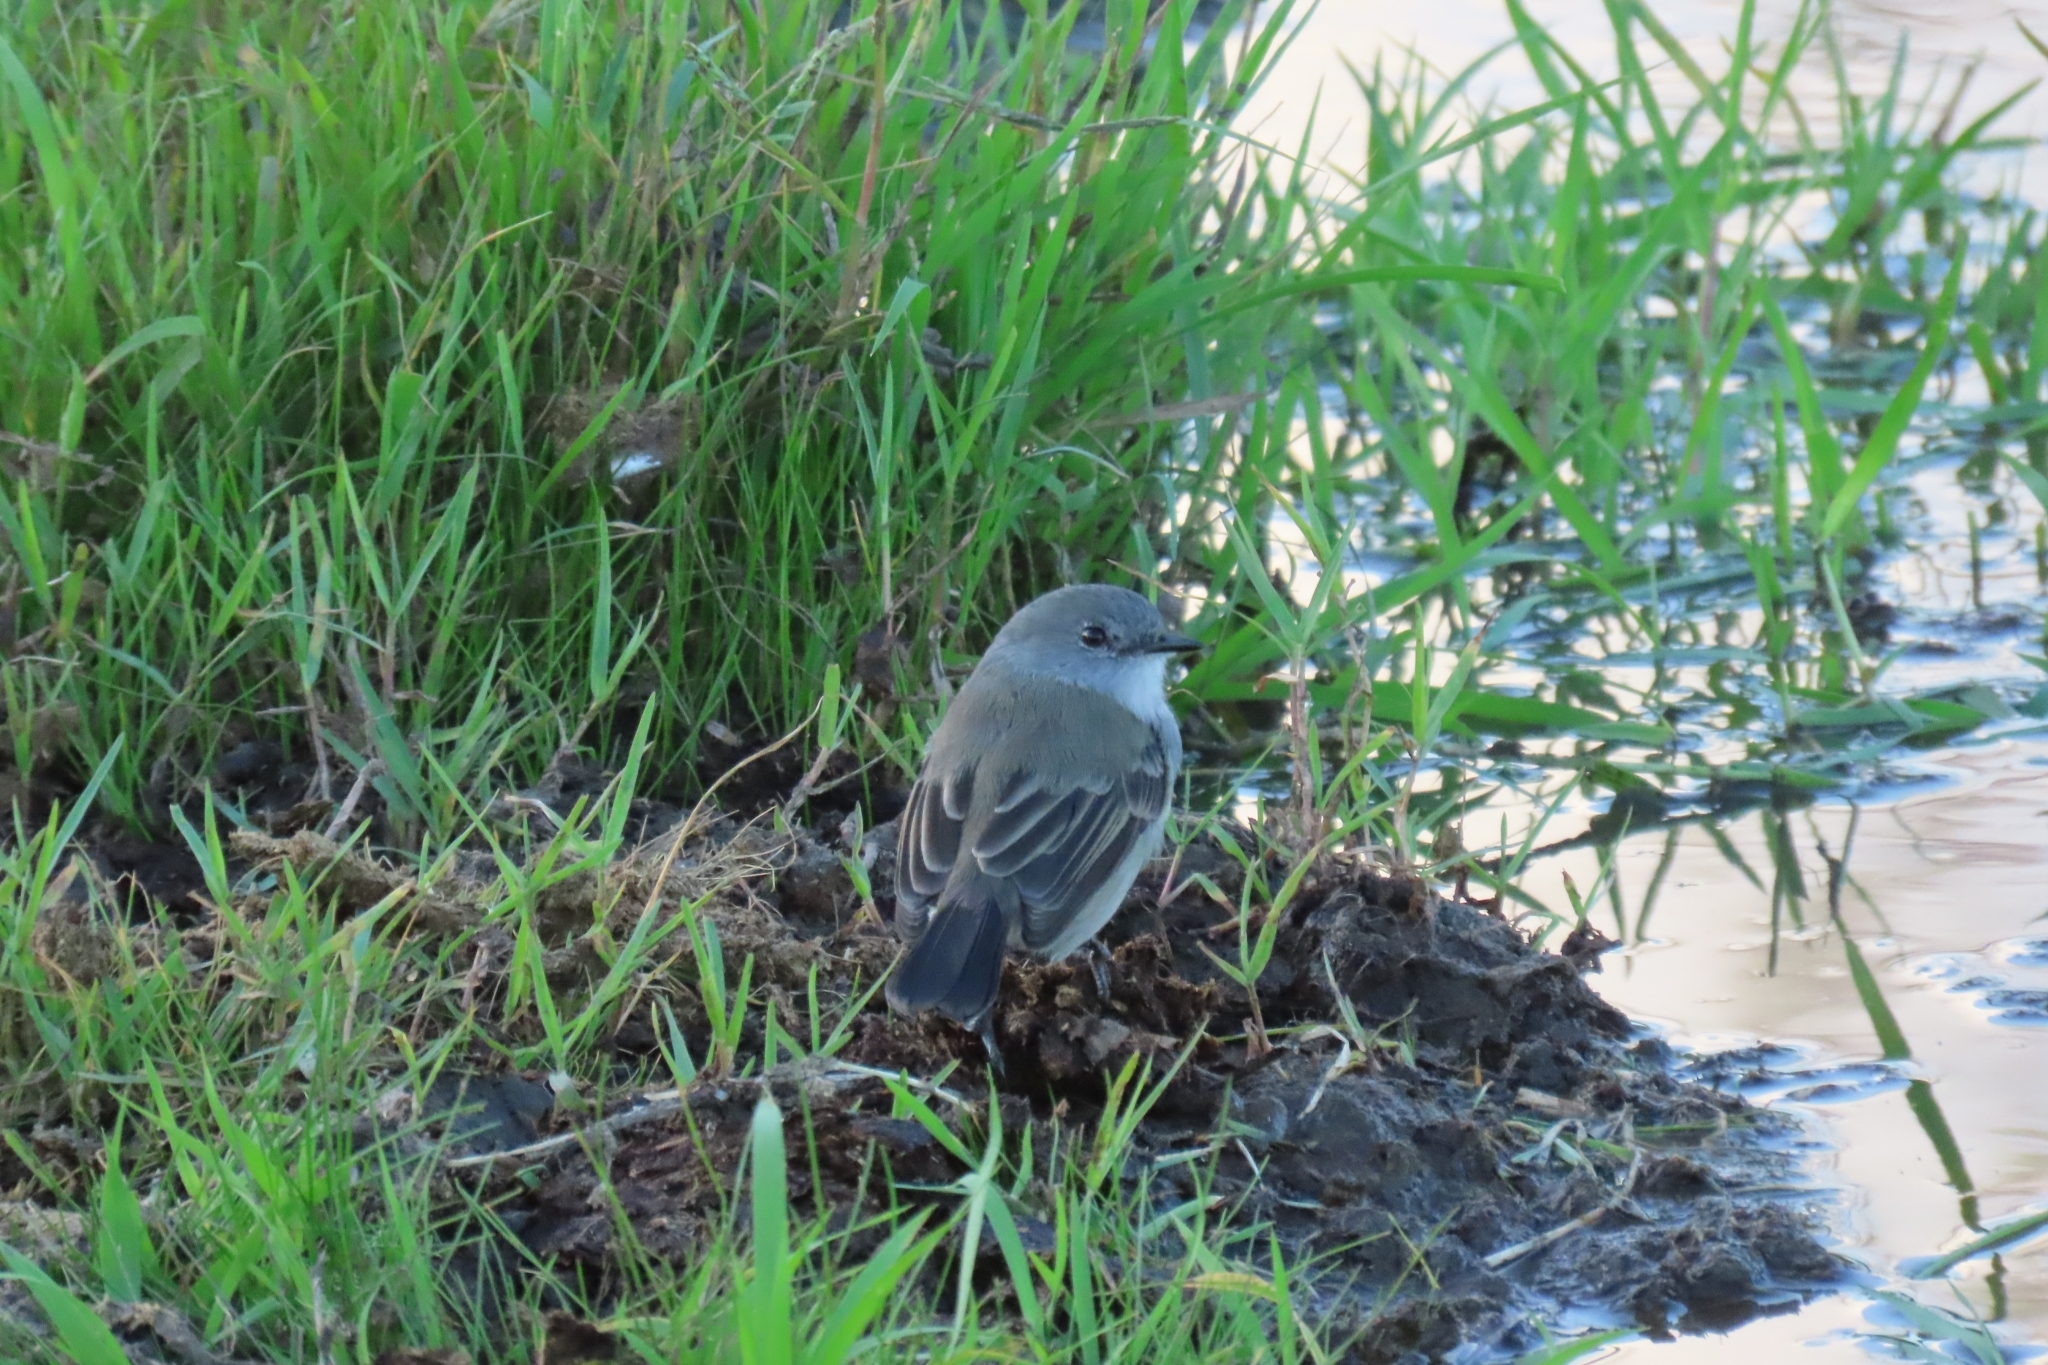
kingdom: Animalia
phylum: Chordata
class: Aves
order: Passeriformes
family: Tyrannidae
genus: Serpophaga
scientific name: Serpophaga nigricans
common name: Sooty tyrannulet
